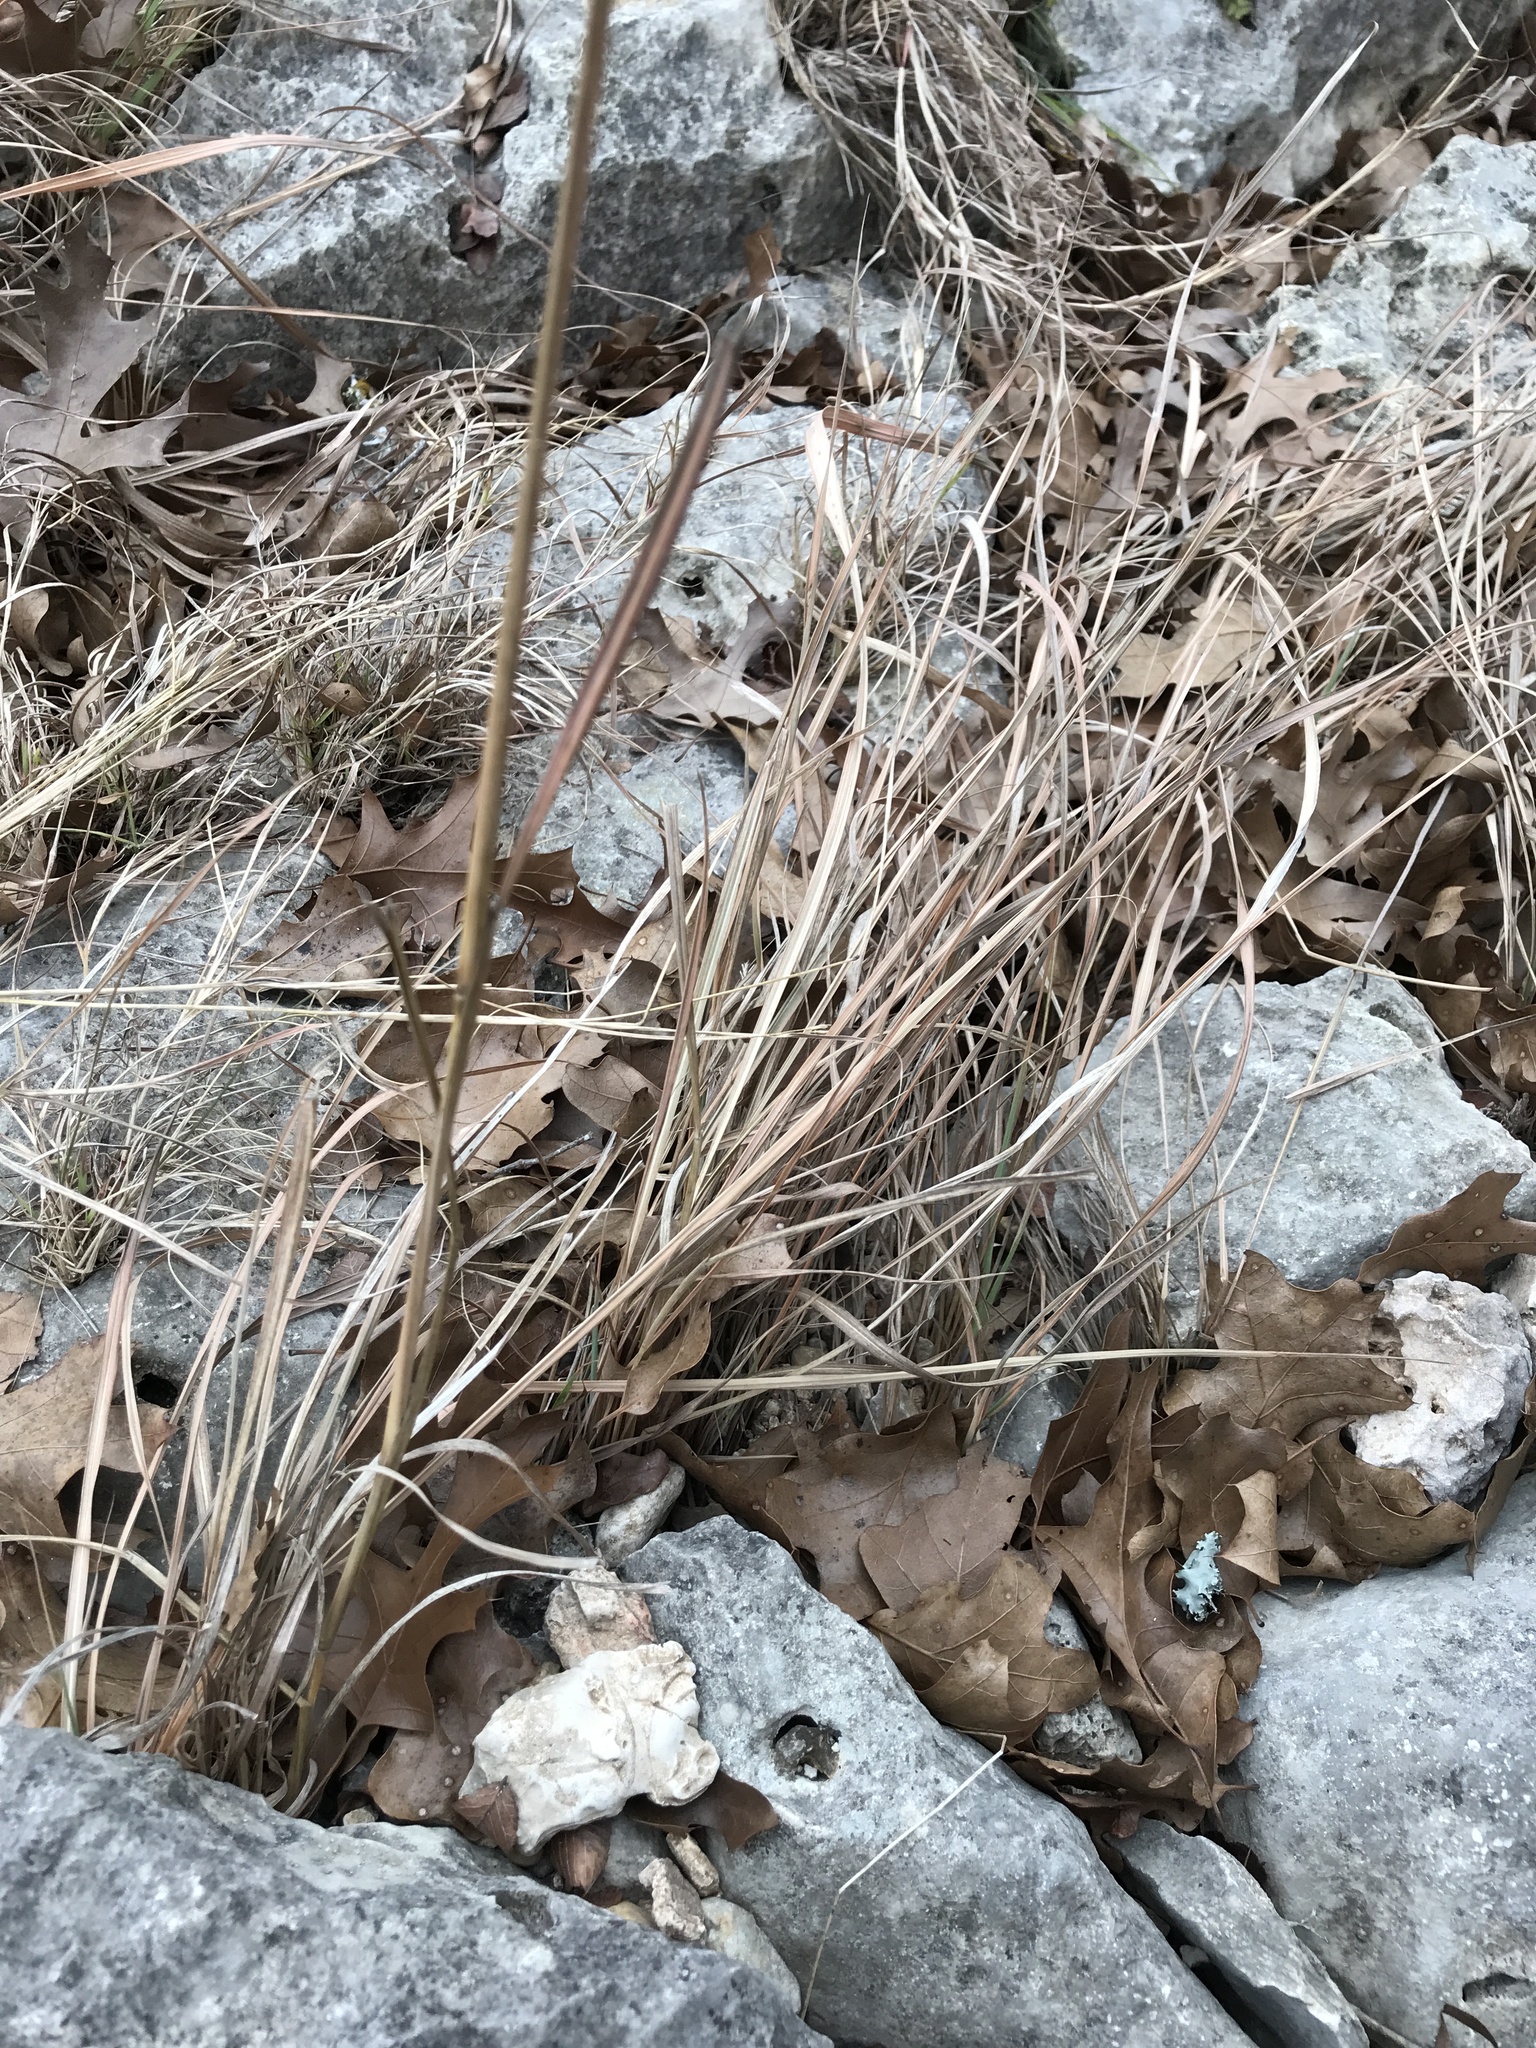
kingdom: Plantae
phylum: Tracheophyta
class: Liliopsida
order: Poales
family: Poaceae
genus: Sorghastrum
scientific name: Sorghastrum nutans
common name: Indian grass
